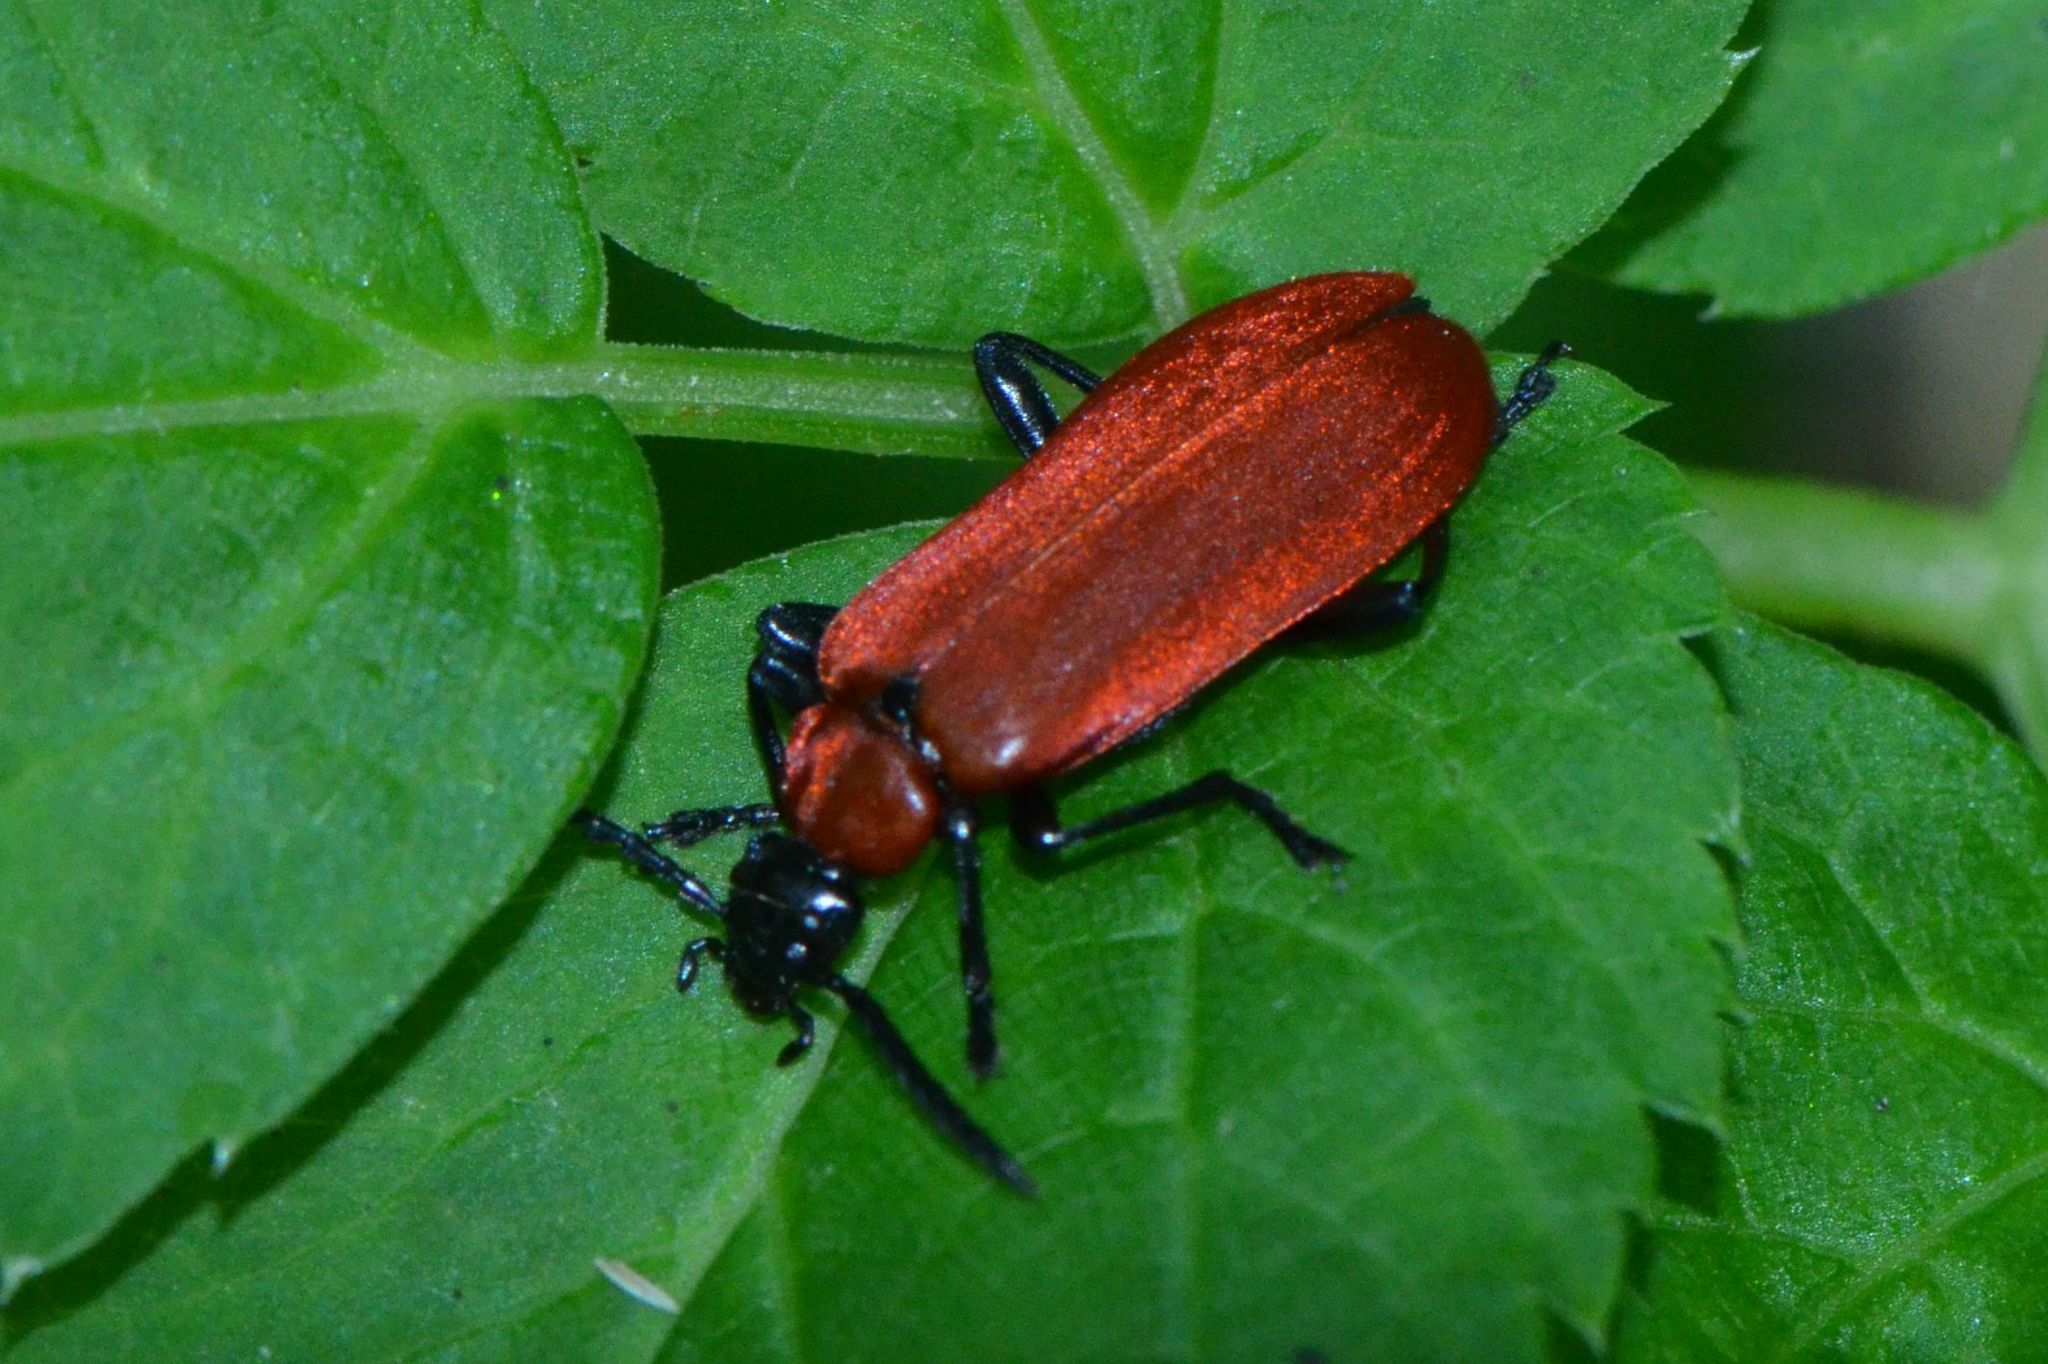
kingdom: Animalia
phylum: Arthropoda
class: Insecta
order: Coleoptera
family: Pyrochroidae
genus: Pyrochroa
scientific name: Pyrochroa coccinea
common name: Black-headed cardinal beetle
